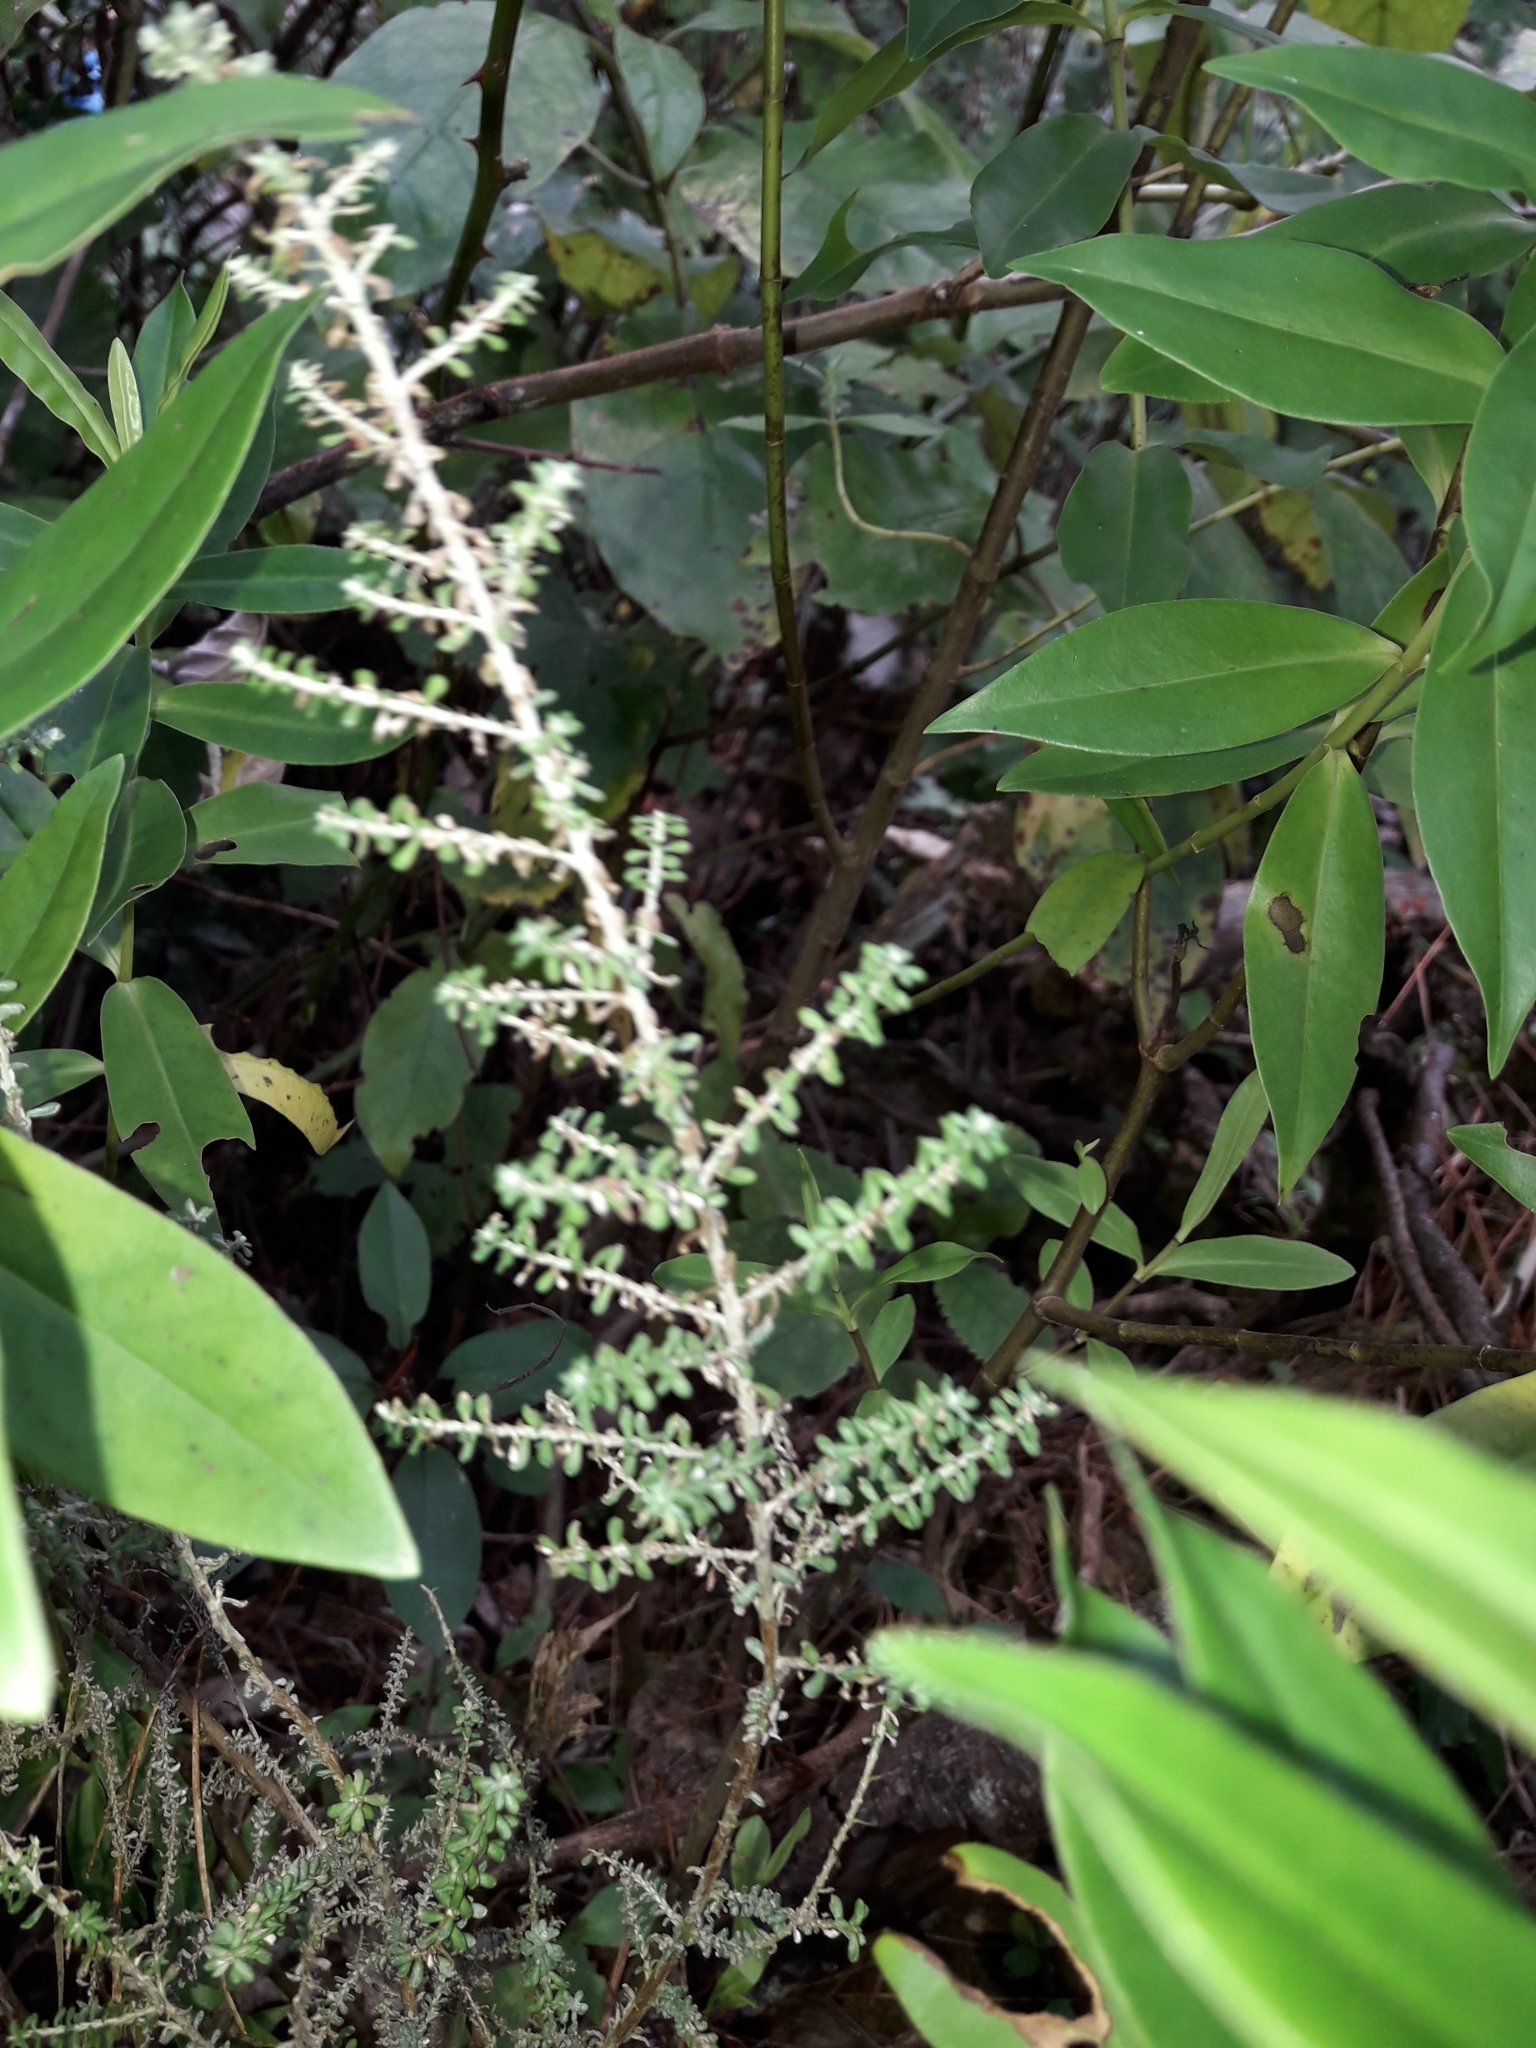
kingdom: Plantae
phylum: Tracheophyta
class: Magnoliopsida
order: Asterales
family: Asteraceae
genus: Ozothamnus
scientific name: Ozothamnus leptophyllus
